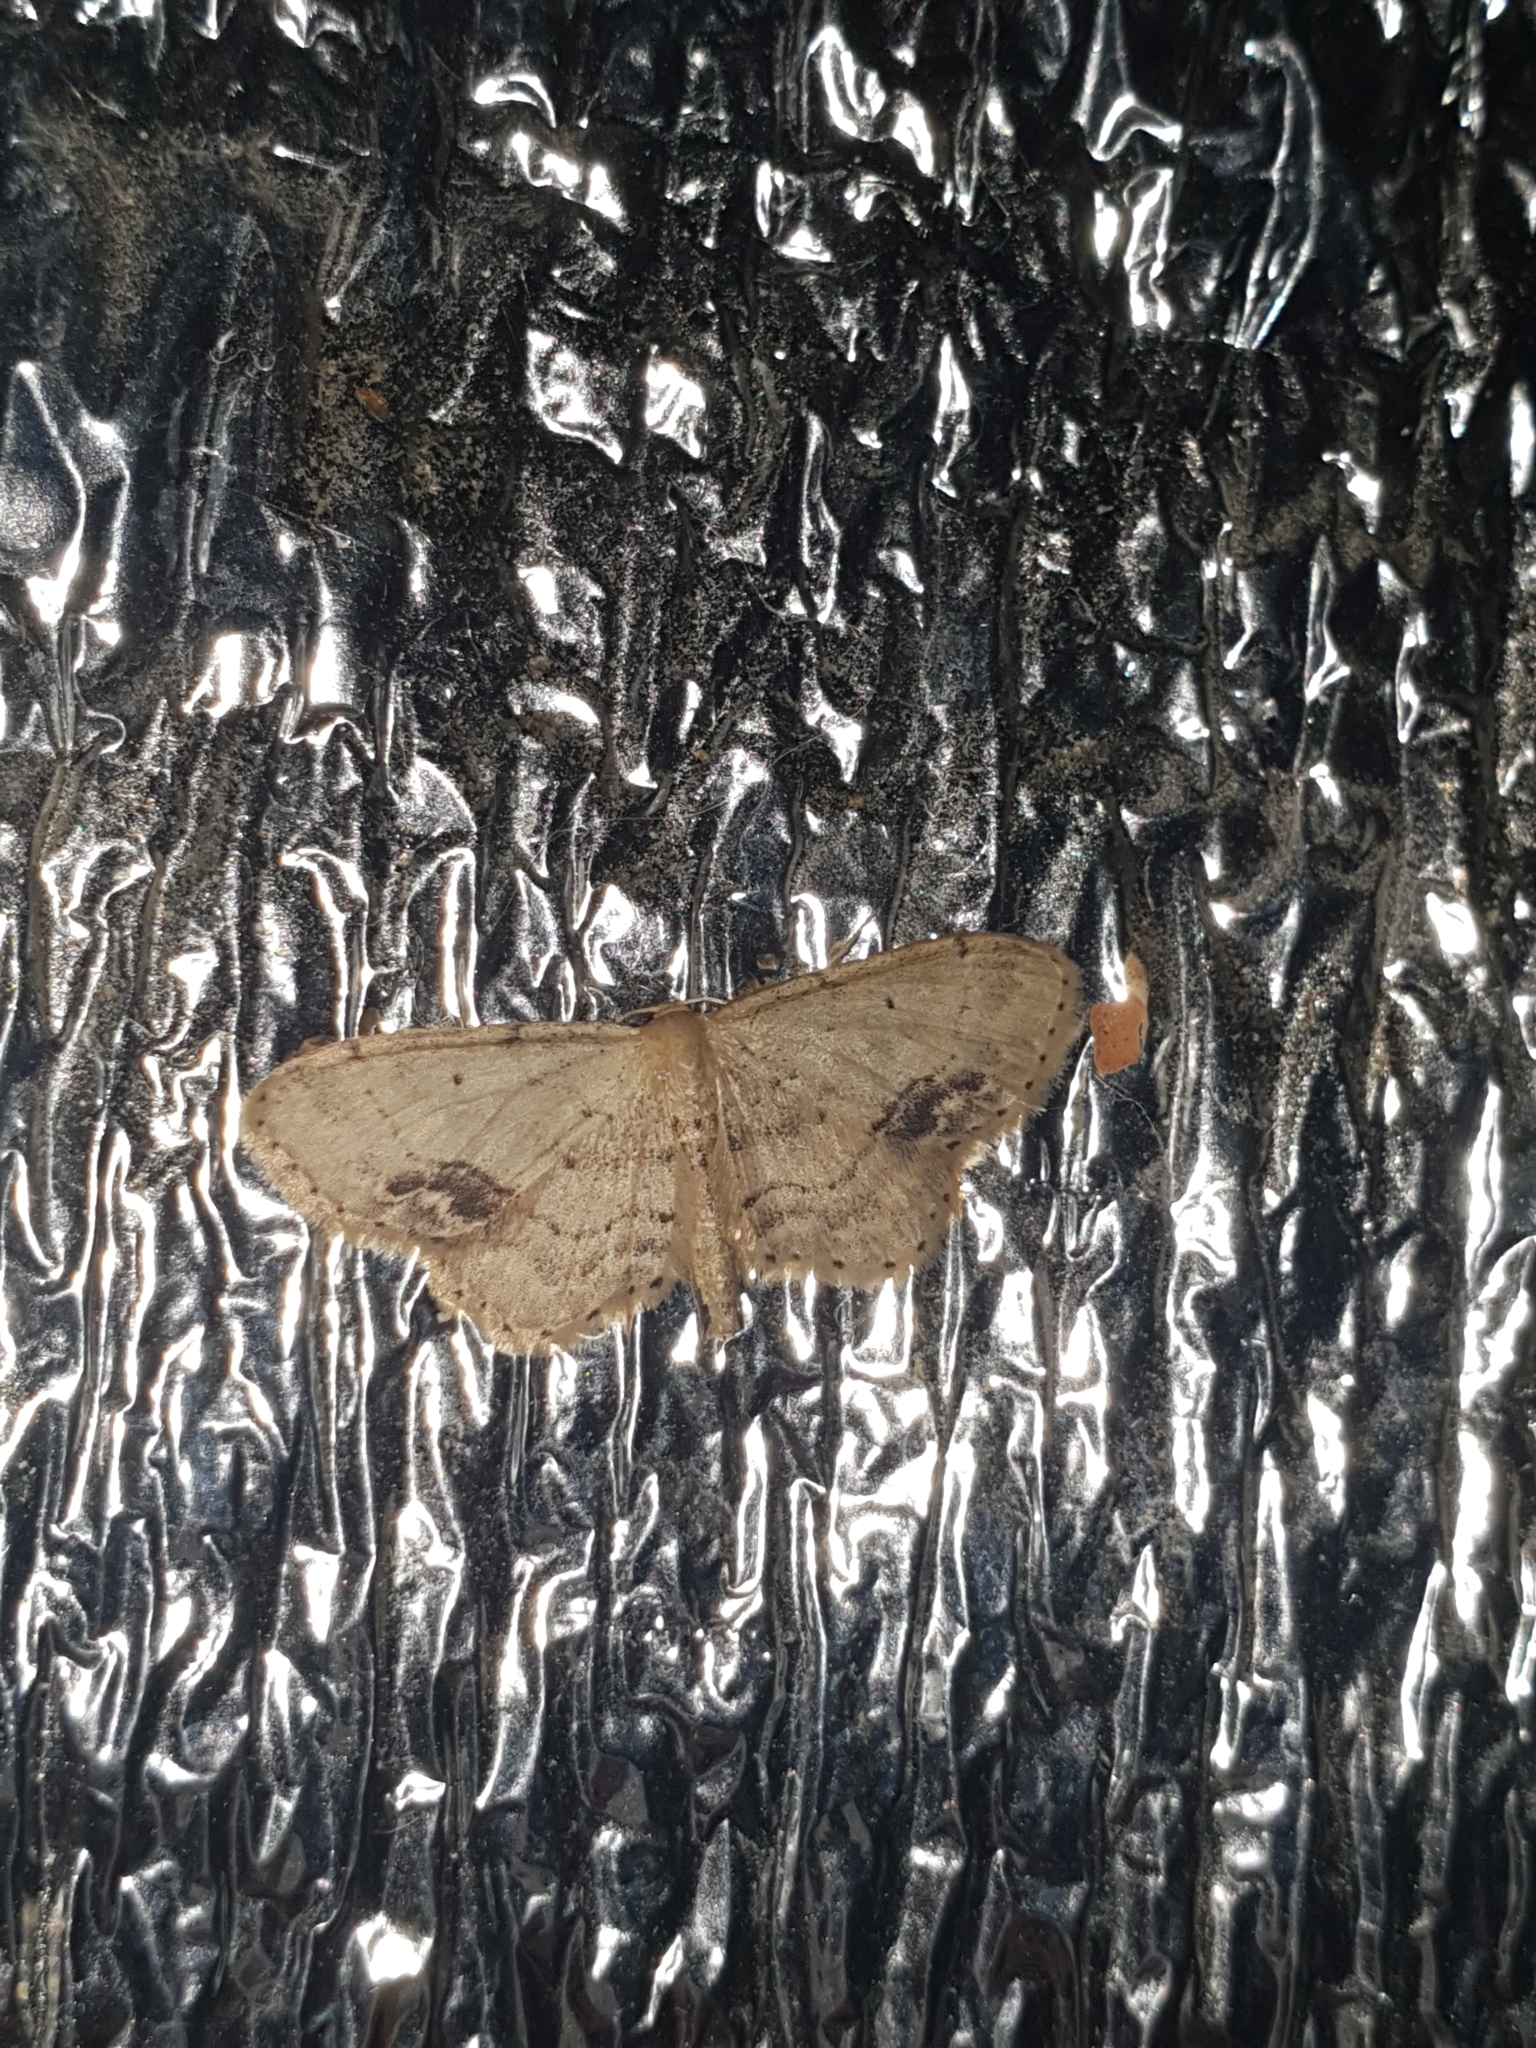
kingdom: Animalia
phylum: Arthropoda
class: Insecta
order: Lepidoptera
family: Geometridae
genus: Idaea
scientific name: Idaea dimidiata
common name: Single-dotted wave
